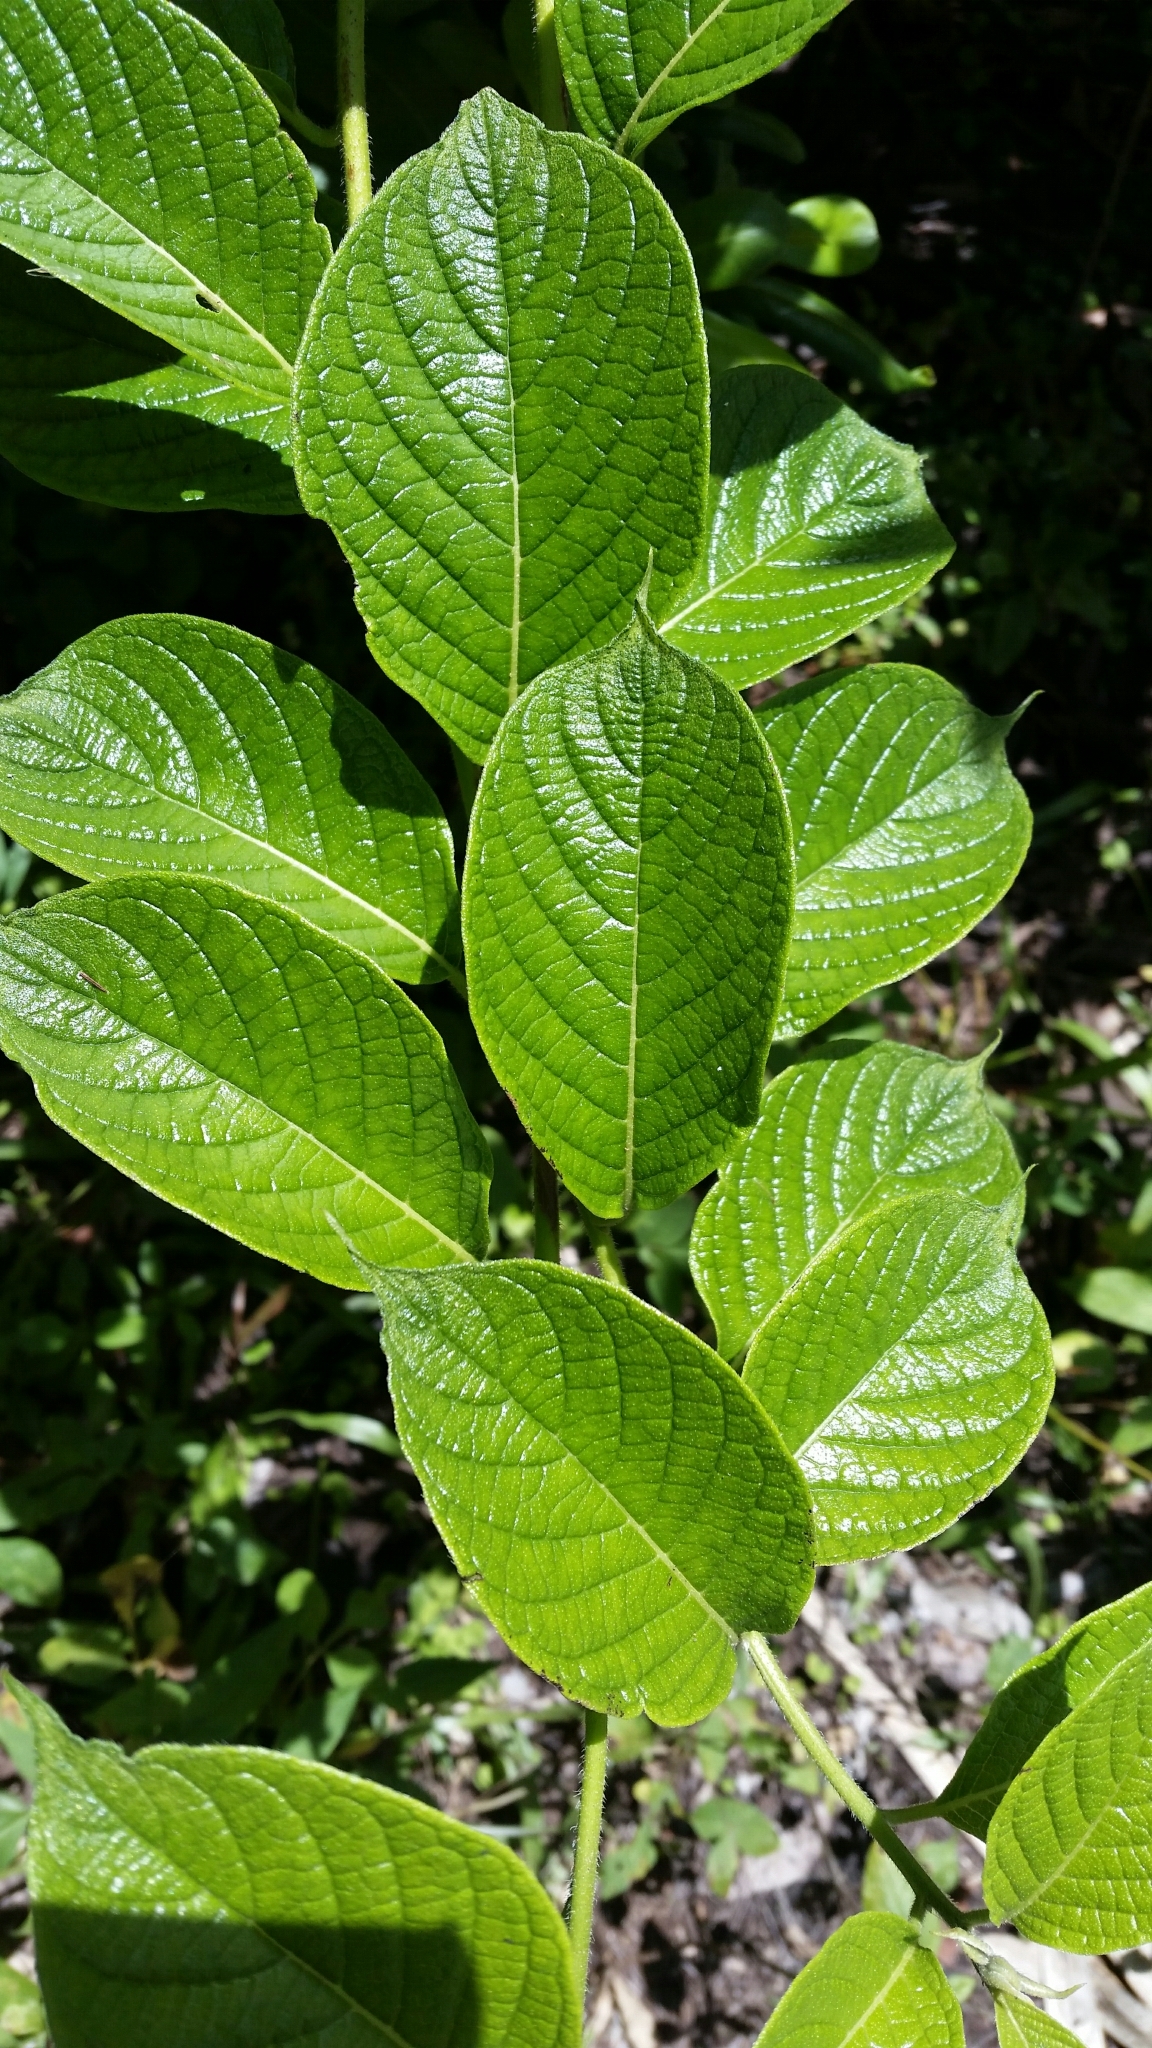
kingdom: Plantae
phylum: Tracheophyta
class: Magnoliopsida
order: Boraginales
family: Heliotropiaceae
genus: Heliotropium
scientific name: Heliotropium verdcourtii
